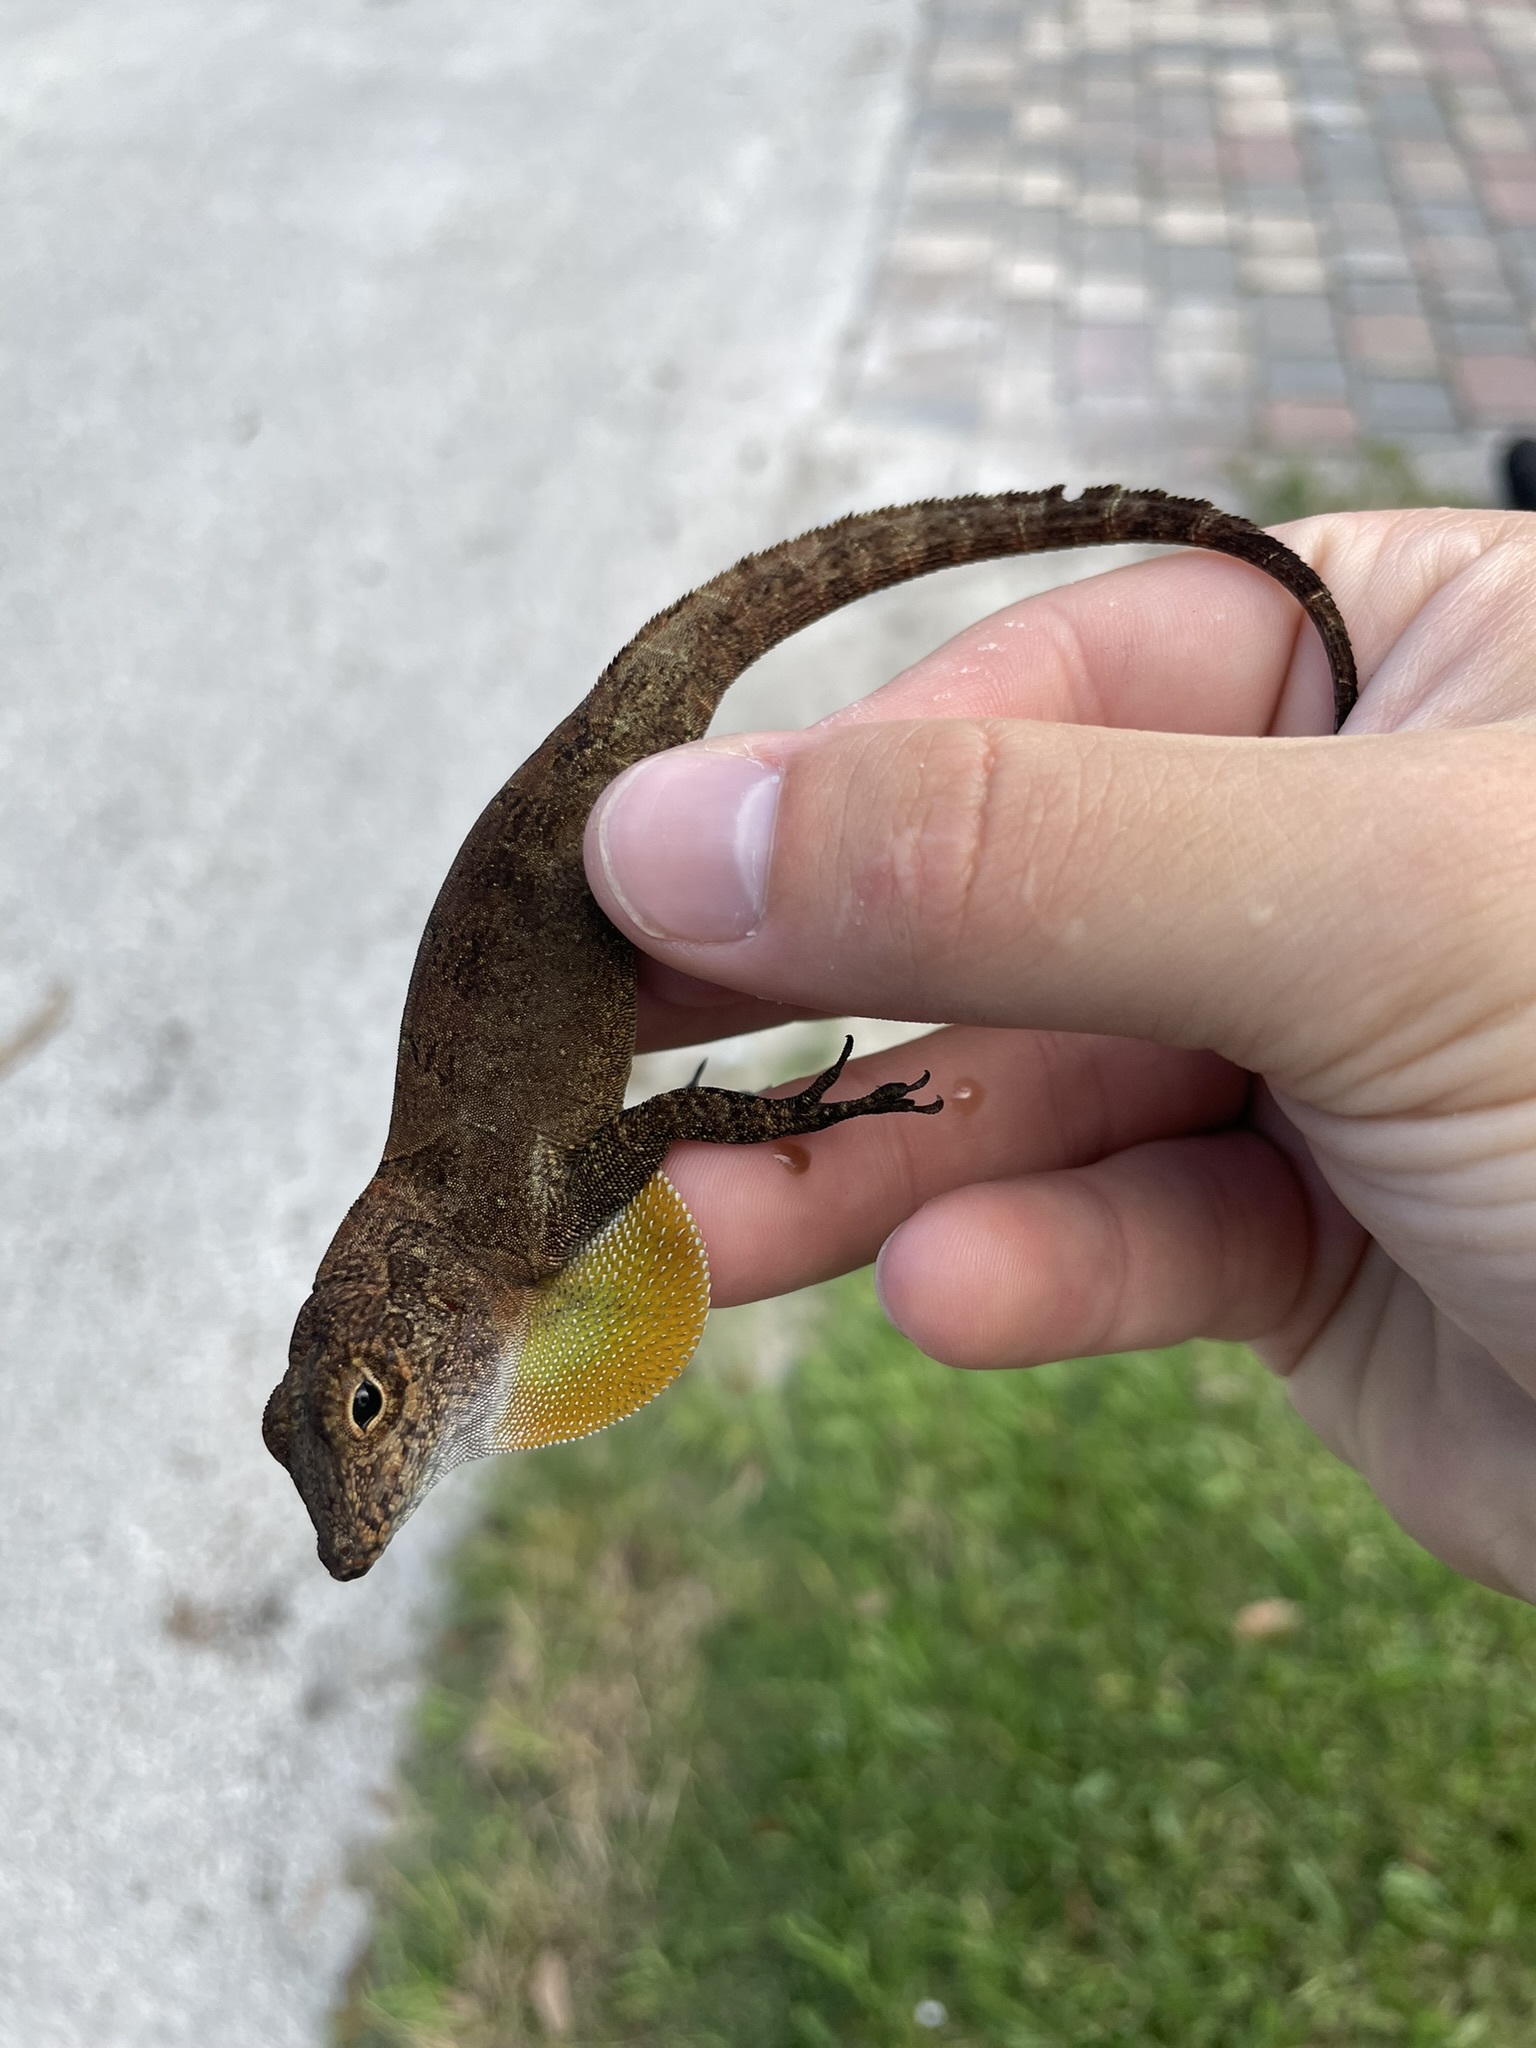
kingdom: Animalia
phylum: Chordata
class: Squamata
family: Dactyloidae
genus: Anolis
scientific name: Anolis cristatellus
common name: Crested anole
